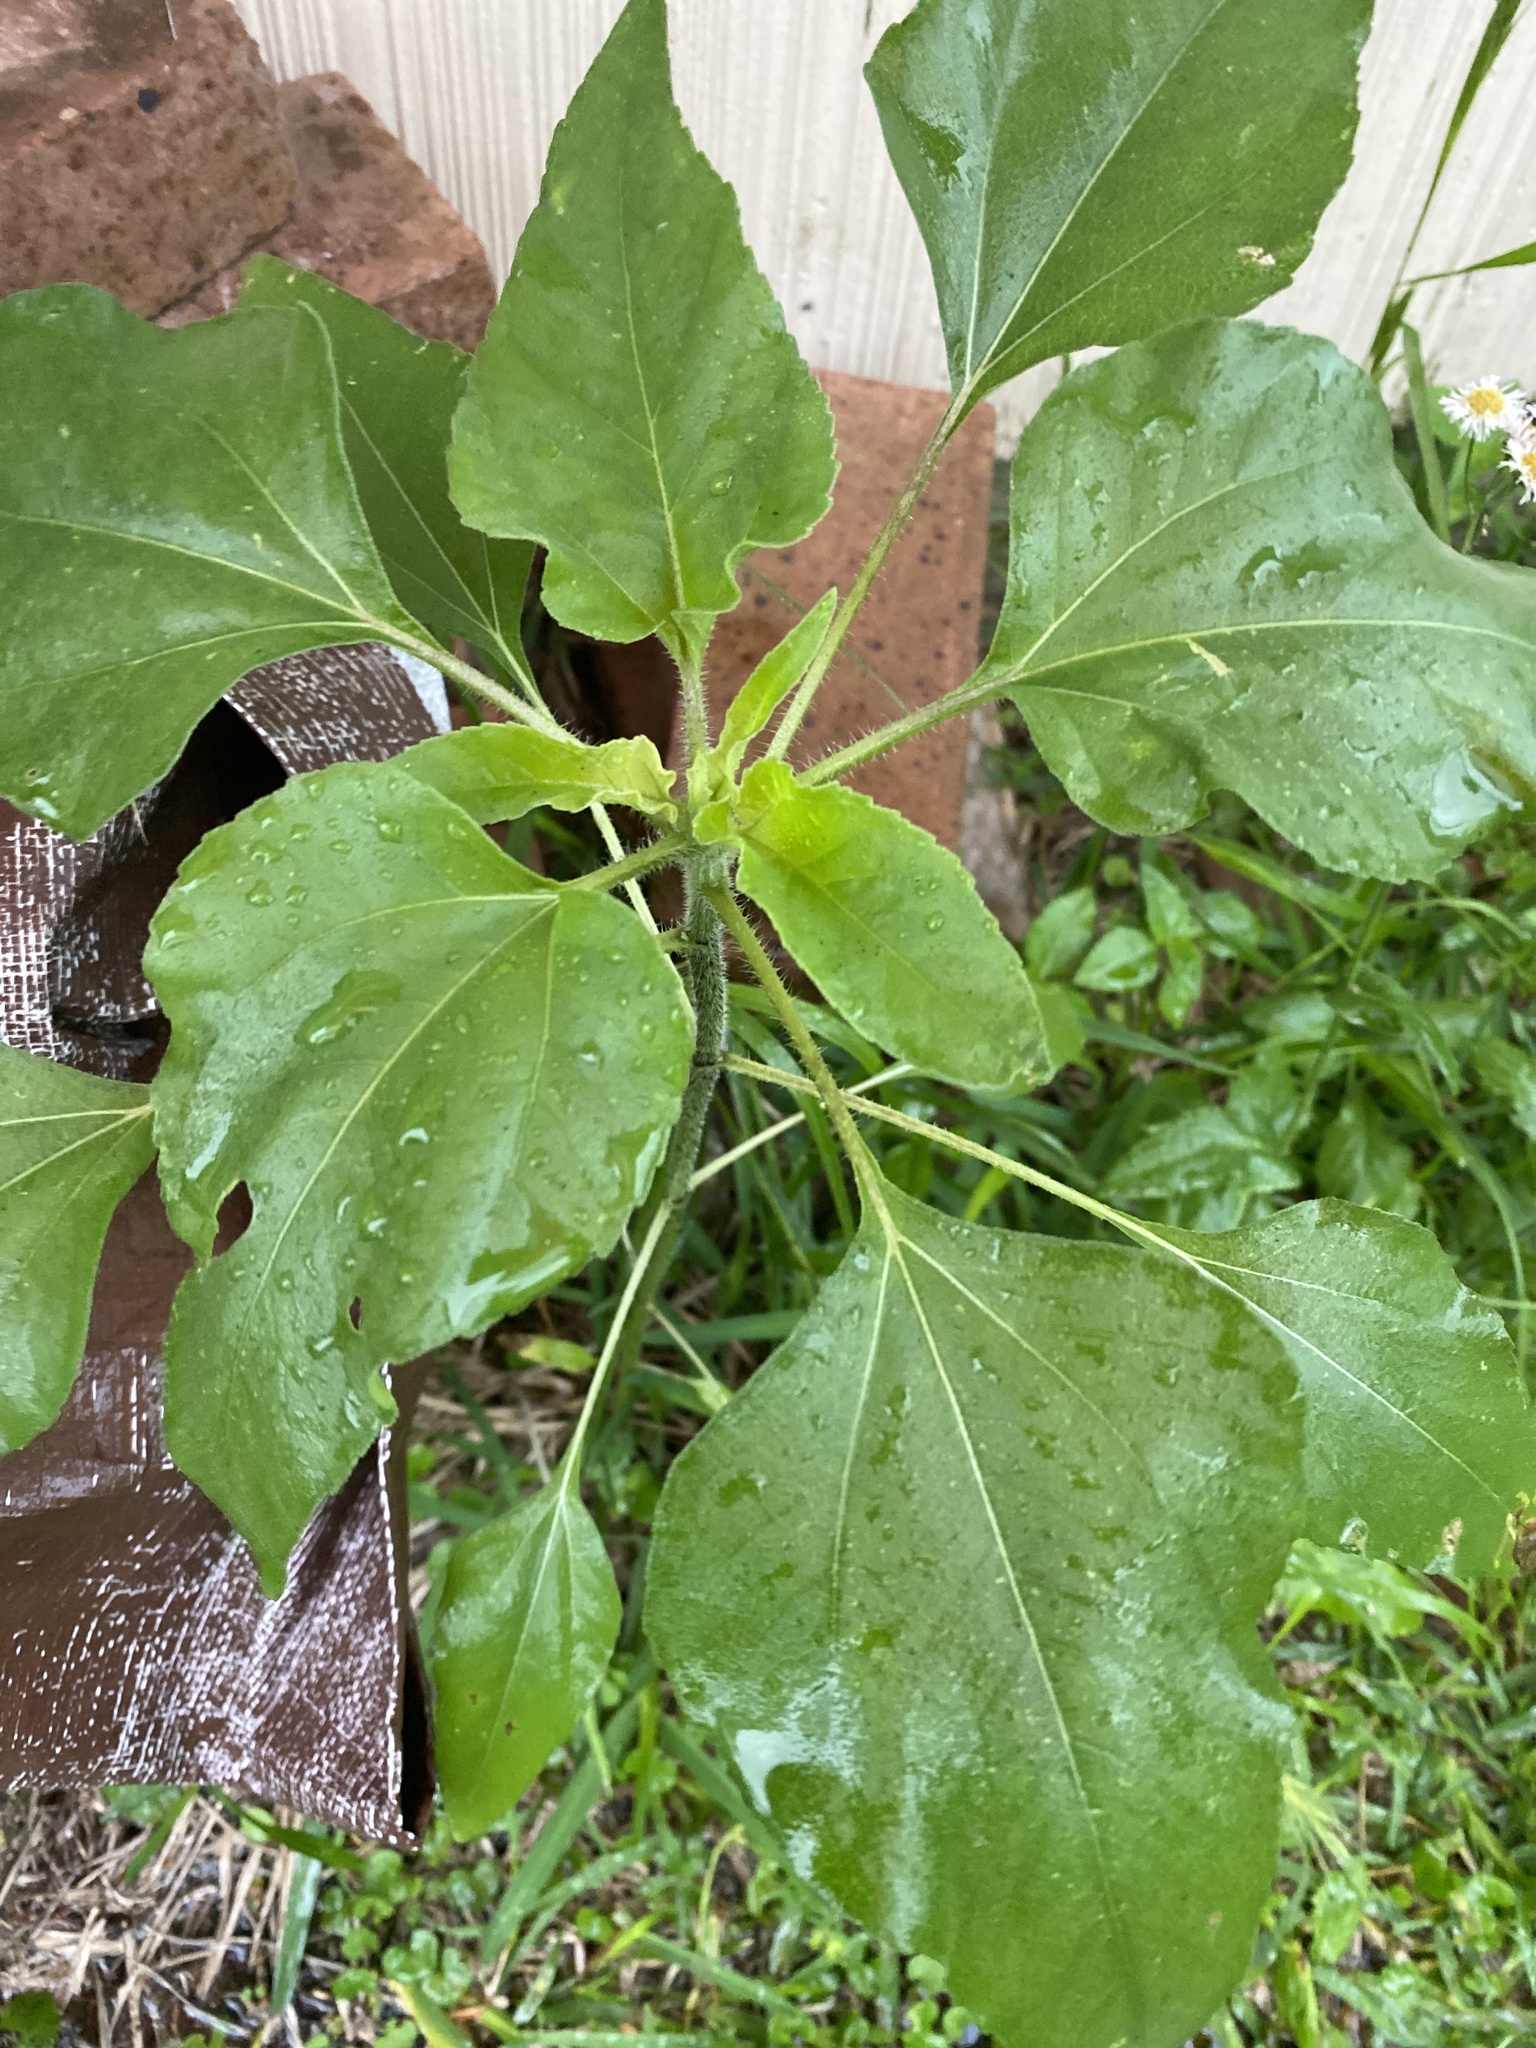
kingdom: Plantae
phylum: Tracheophyta
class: Magnoliopsida
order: Asterales
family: Asteraceae
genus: Helianthus
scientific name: Helianthus annuus
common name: Sunflower
